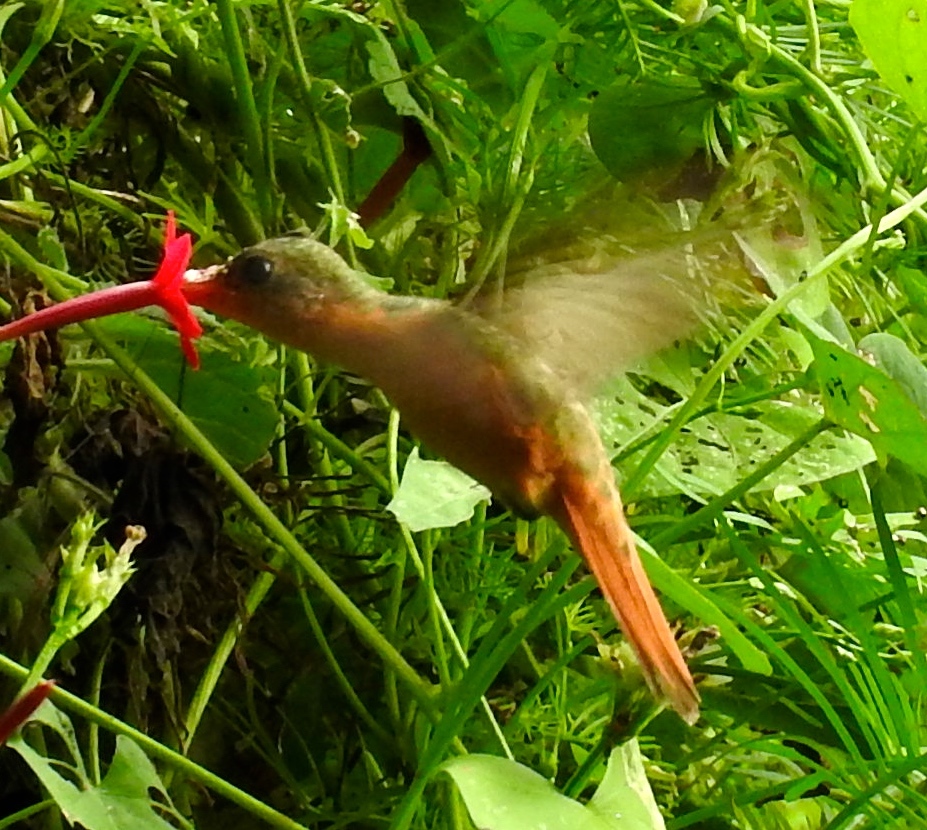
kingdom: Animalia
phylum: Chordata
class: Aves
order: Apodiformes
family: Trochilidae
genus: Amazilia
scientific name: Amazilia rutila
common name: Cinnamon hummingbird
